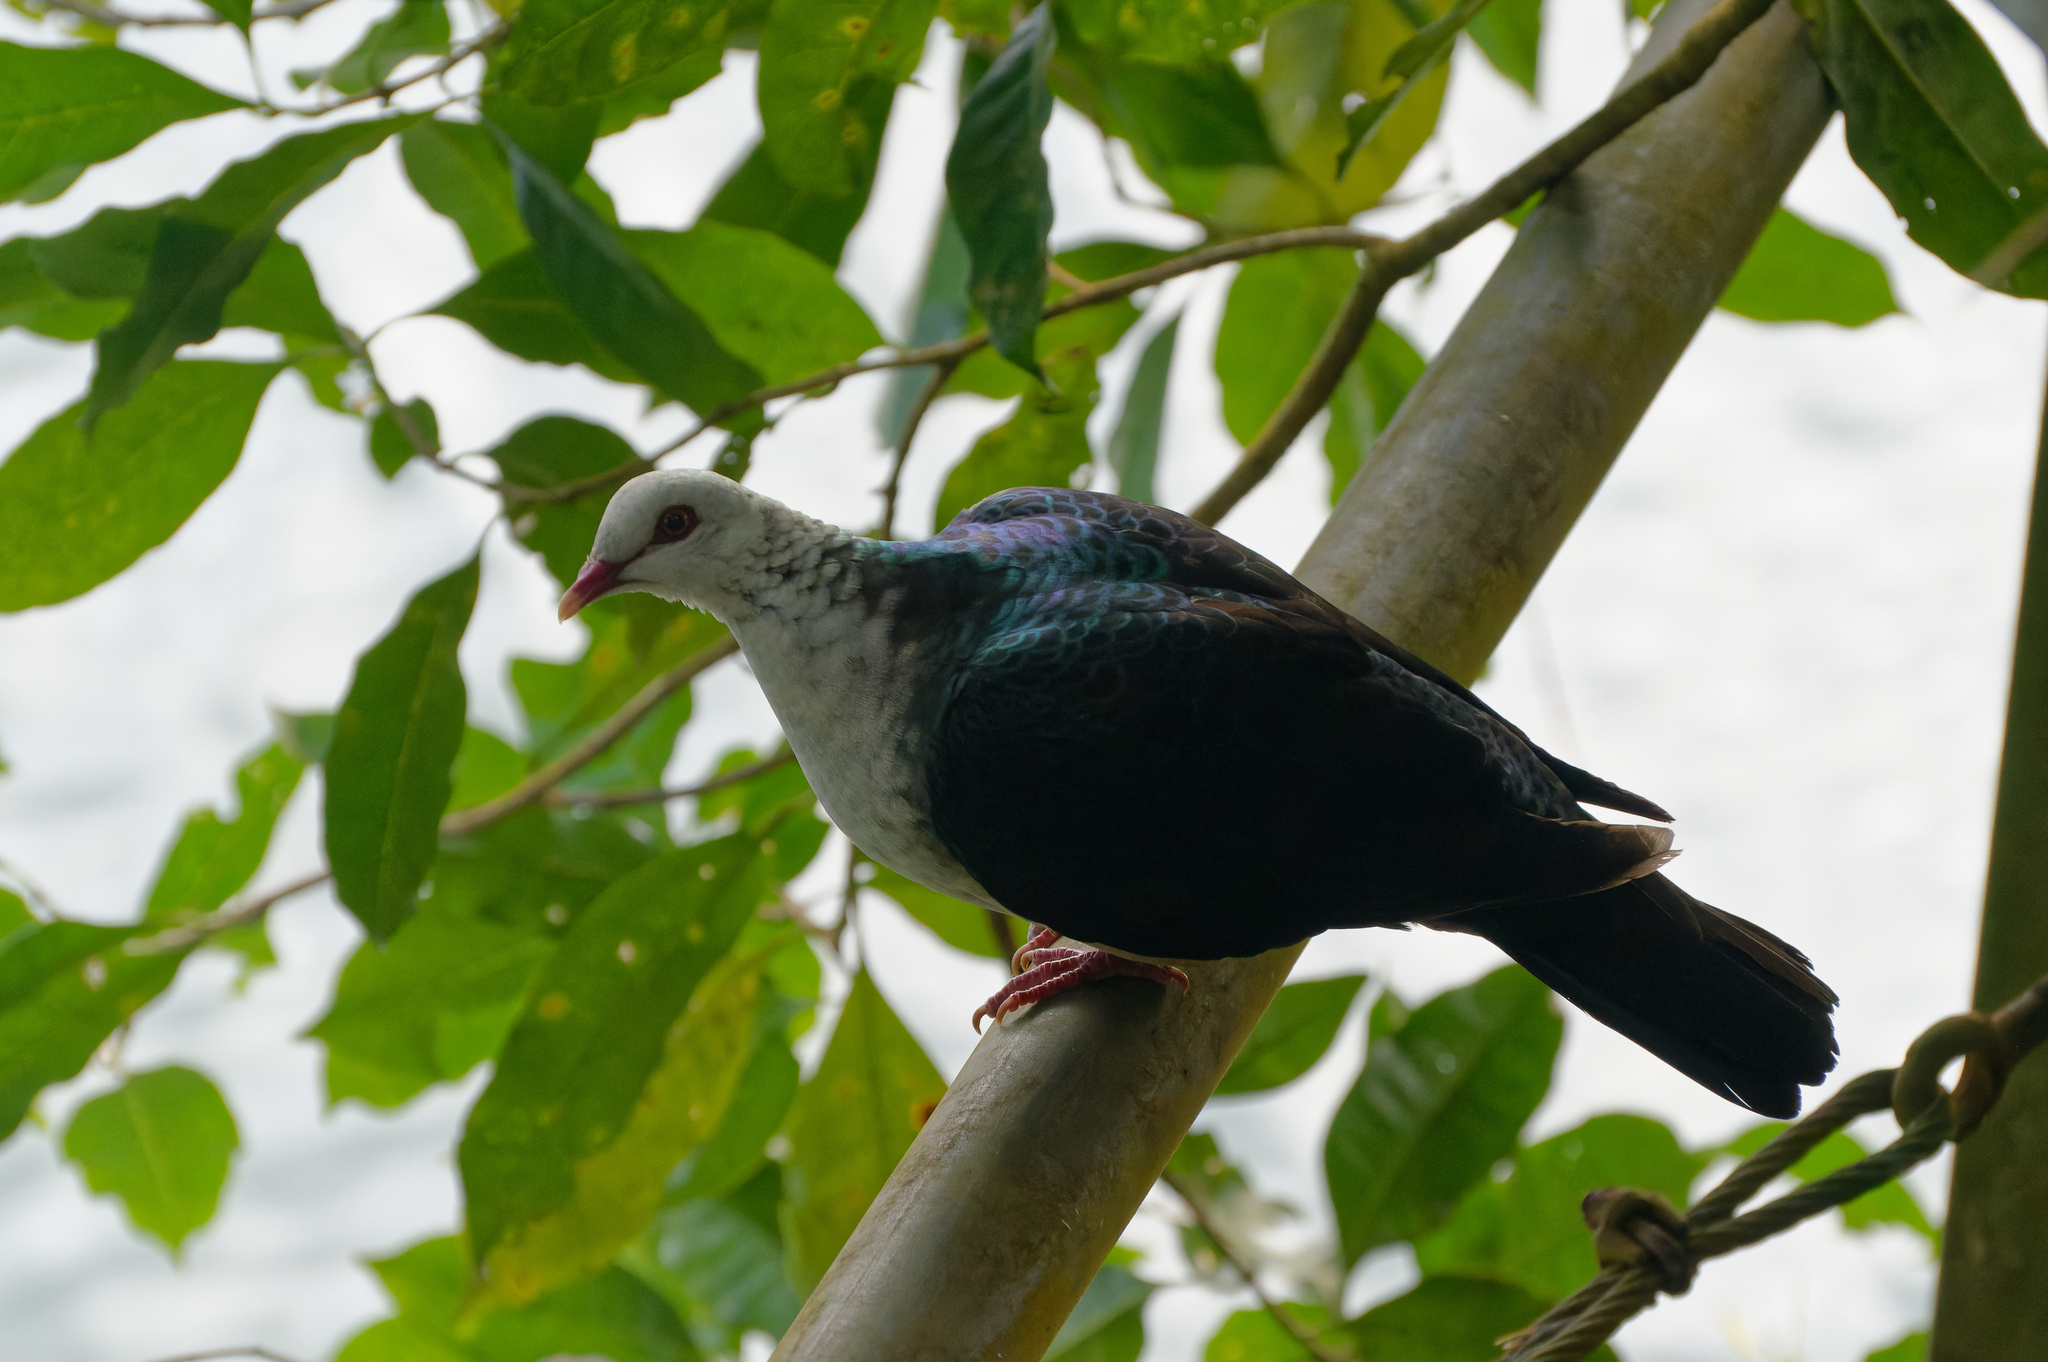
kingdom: Animalia
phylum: Chordata
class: Aves
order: Columbiformes
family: Columbidae
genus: Columba
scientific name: Columba leucomela
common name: White-headed pigeon
